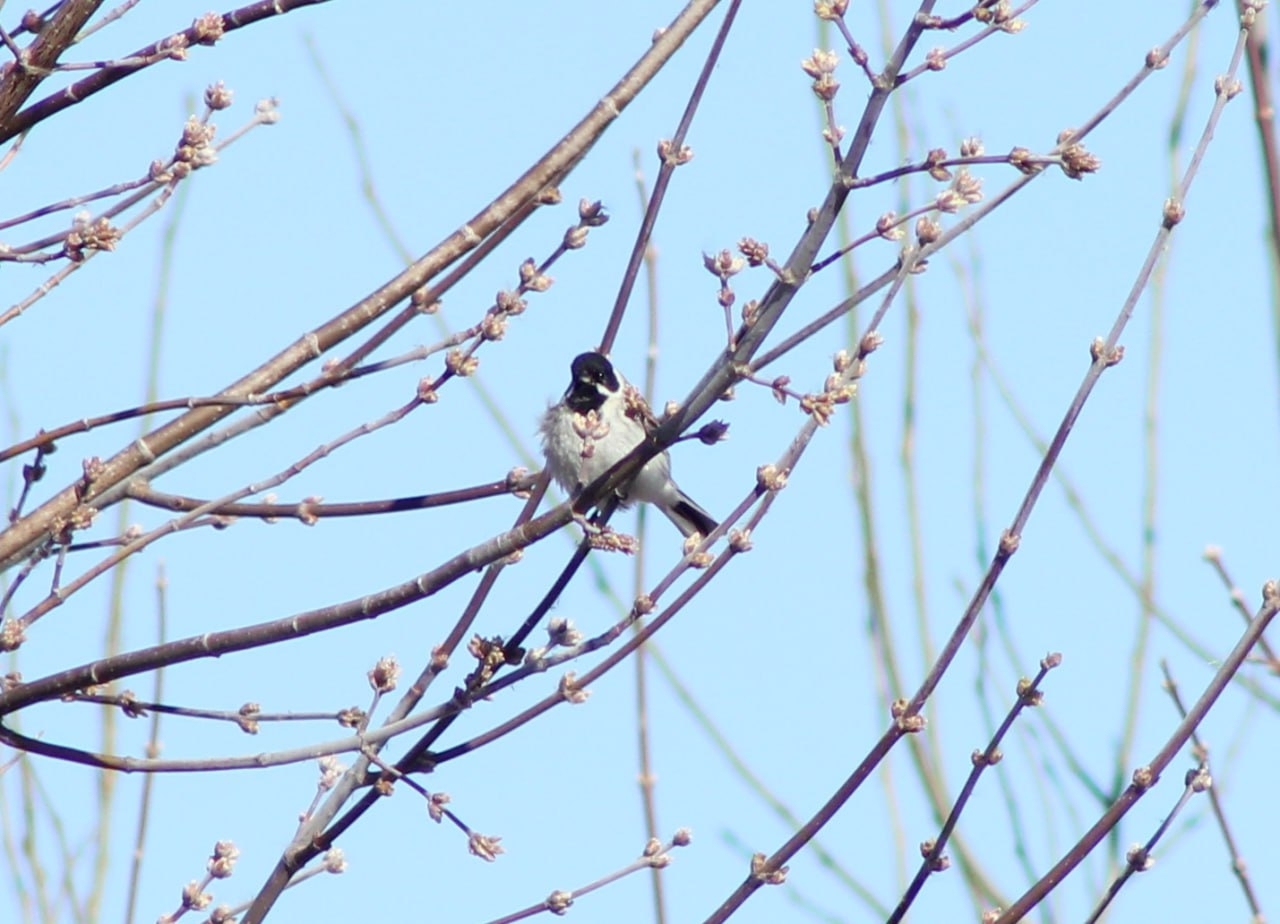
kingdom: Animalia
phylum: Chordata
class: Aves
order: Passeriformes
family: Emberizidae
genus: Emberiza
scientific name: Emberiza schoeniclus
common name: Reed bunting
